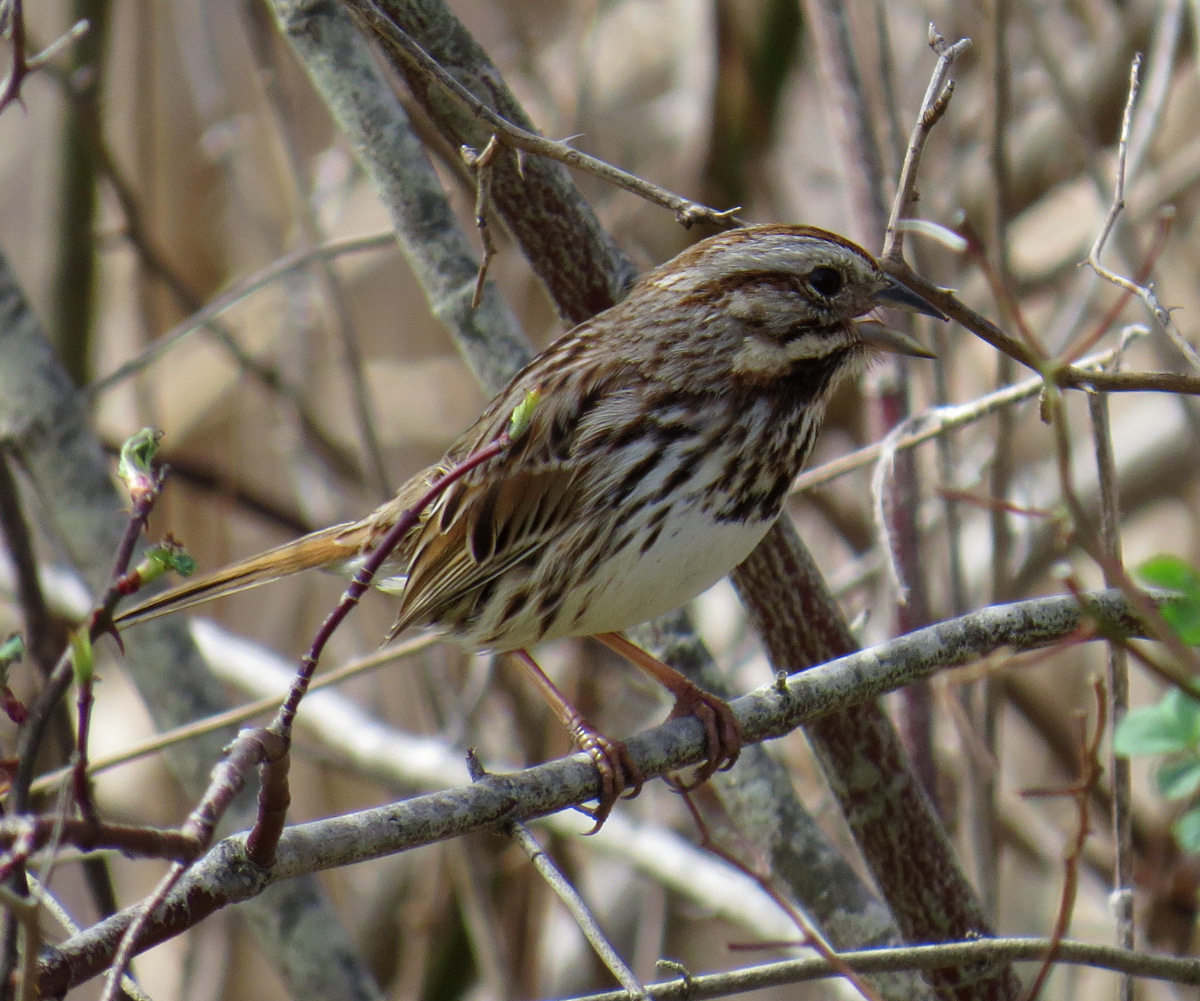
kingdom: Animalia
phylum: Chordata
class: Aves
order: Passeriformes
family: Passerellidae
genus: Melospiza
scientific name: Melospiza melodia
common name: Song sparrow
